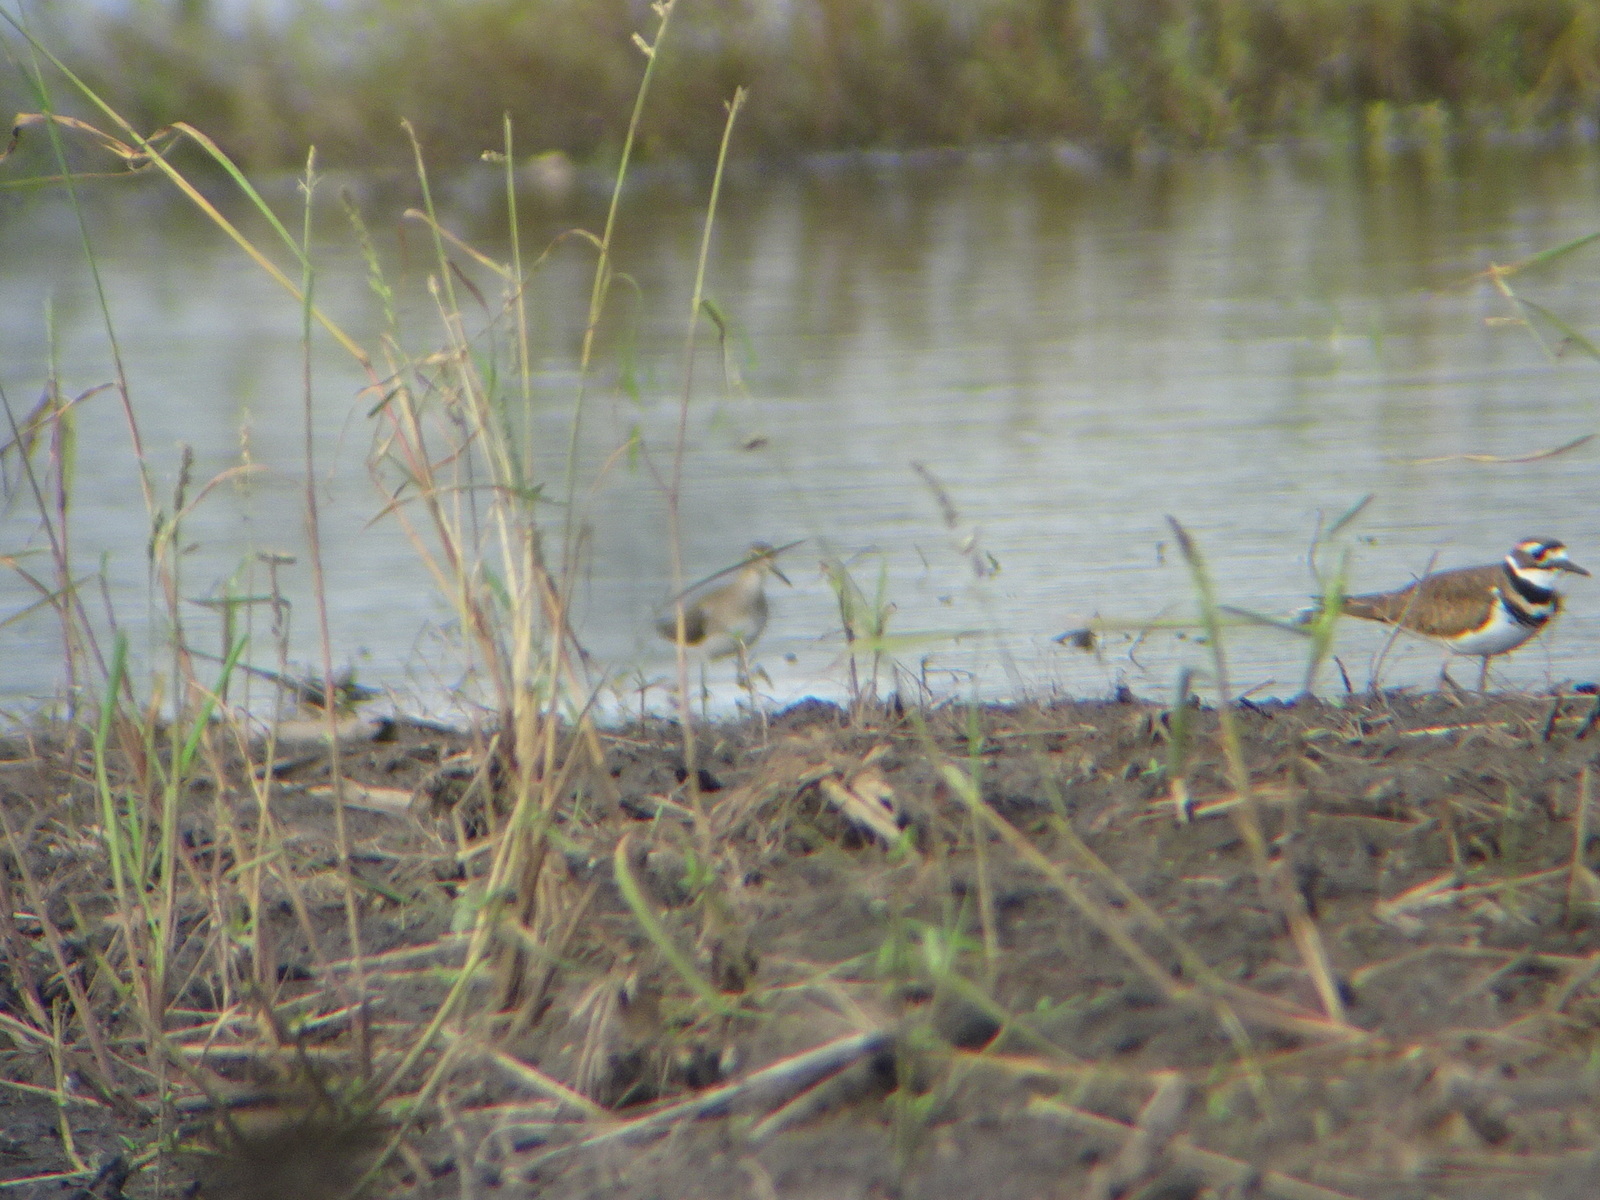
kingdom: Animalia
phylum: Chordata
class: Aves
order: Charadriiformes
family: Scolopacidae
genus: Tringa
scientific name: Tringa solitaria
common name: Solitary sandpiper
